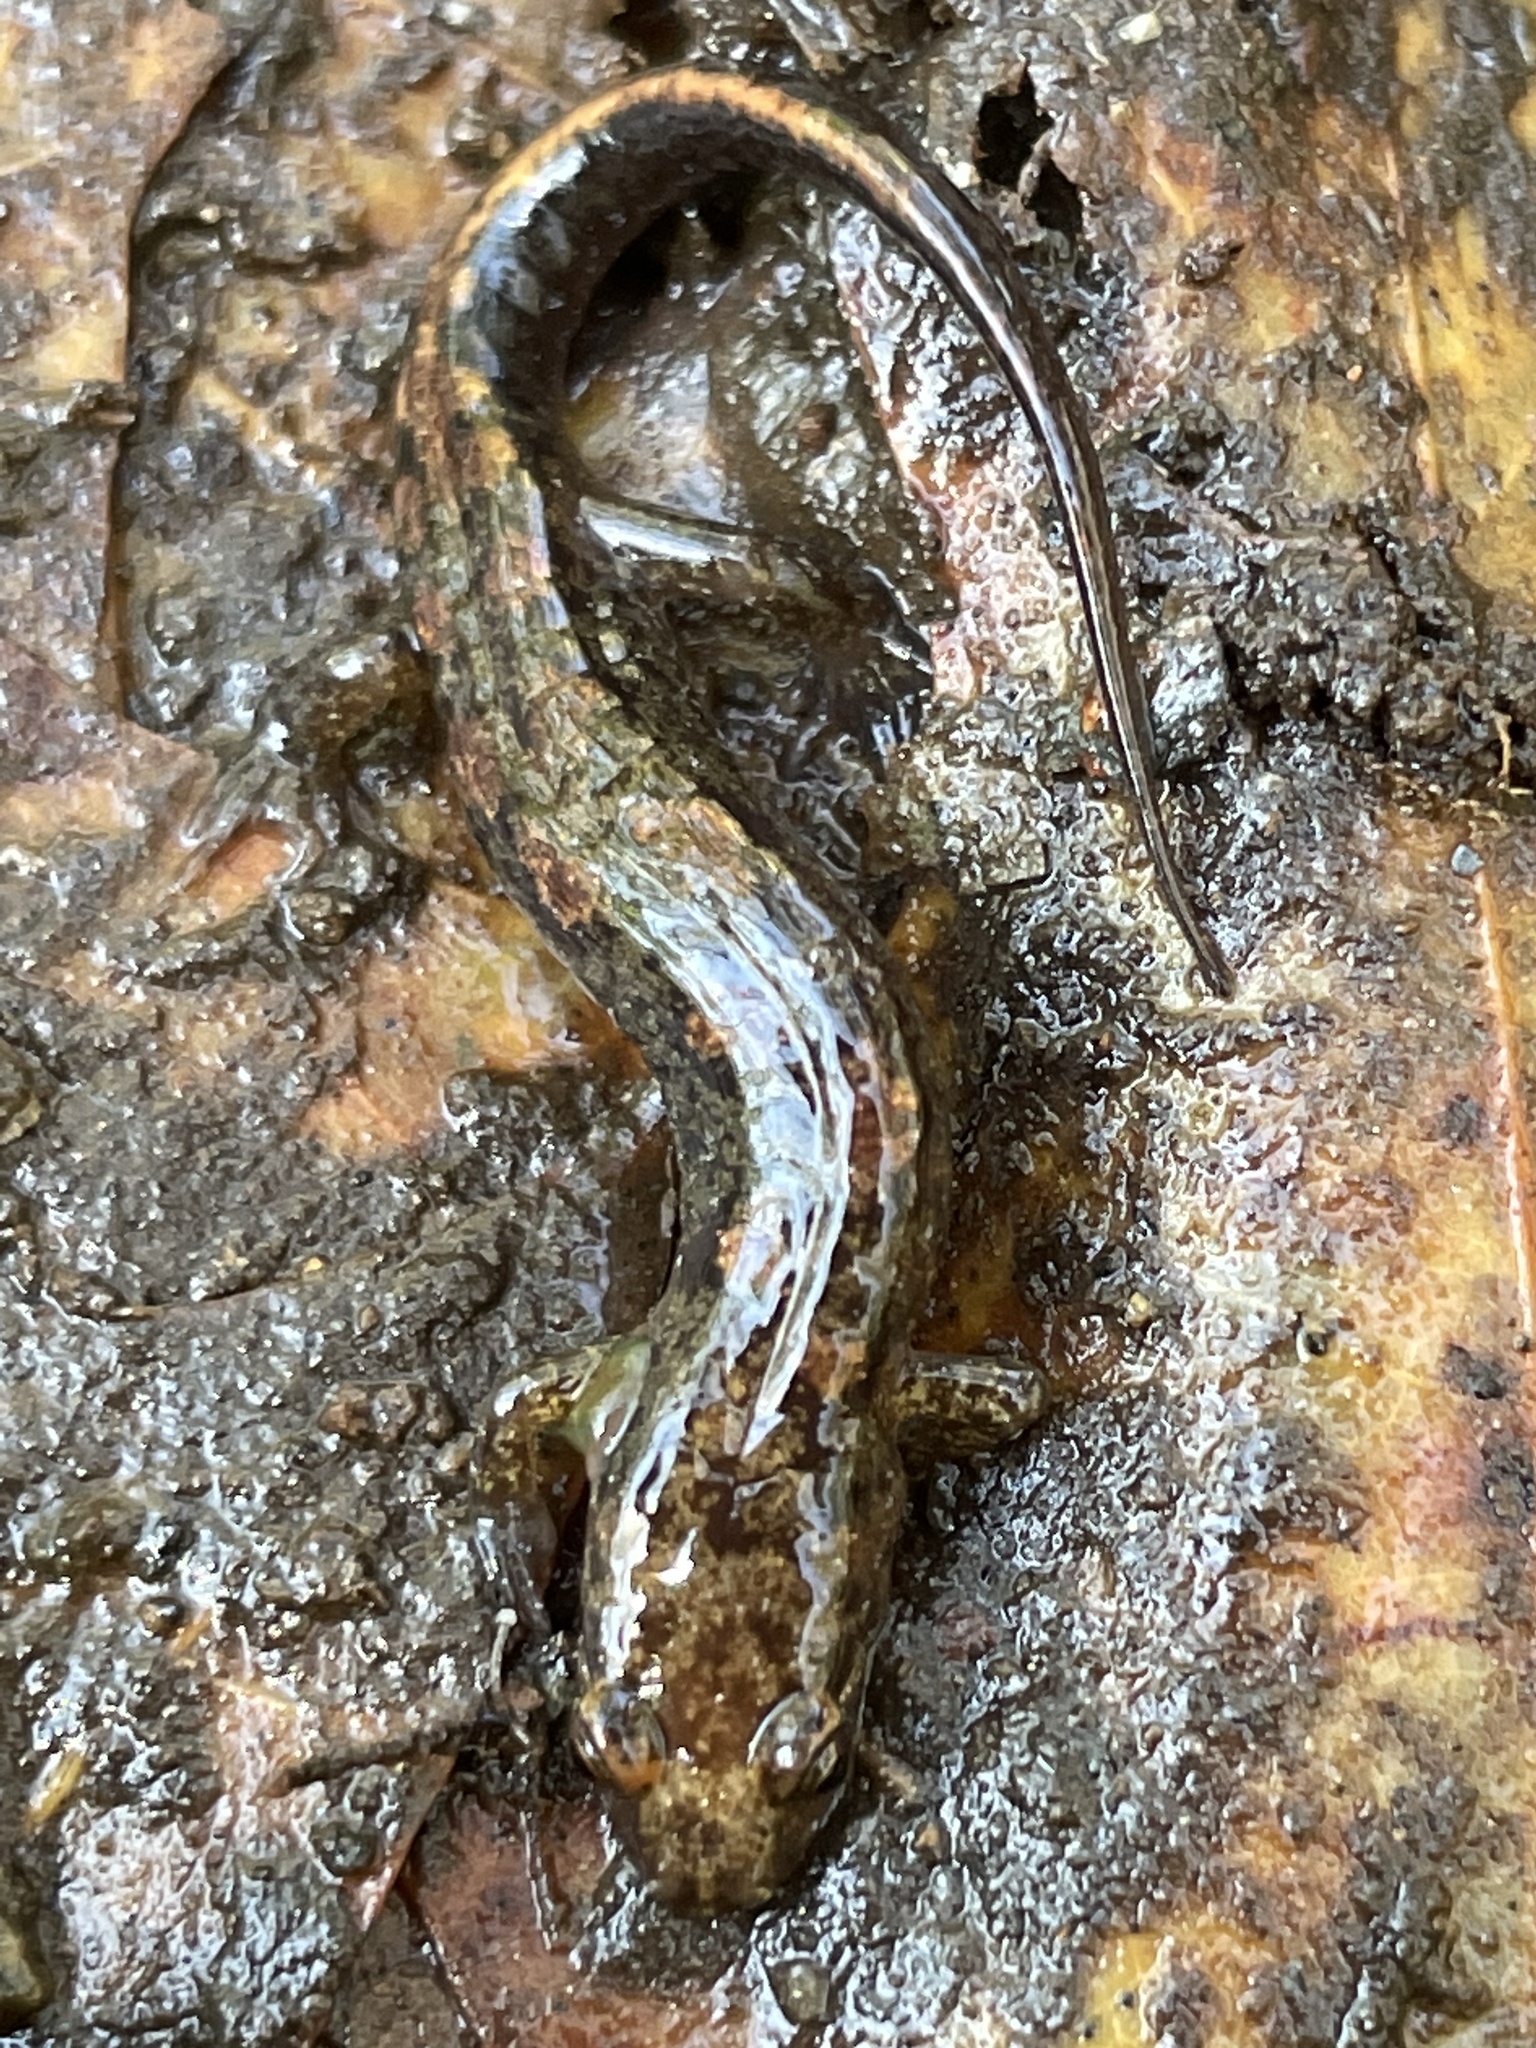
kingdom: Animalia
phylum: Chordata
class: Amphibia
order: Caudata
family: Plethodontidae
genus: Desmognathus
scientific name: Desmognathus monticola
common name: Seal salamander
